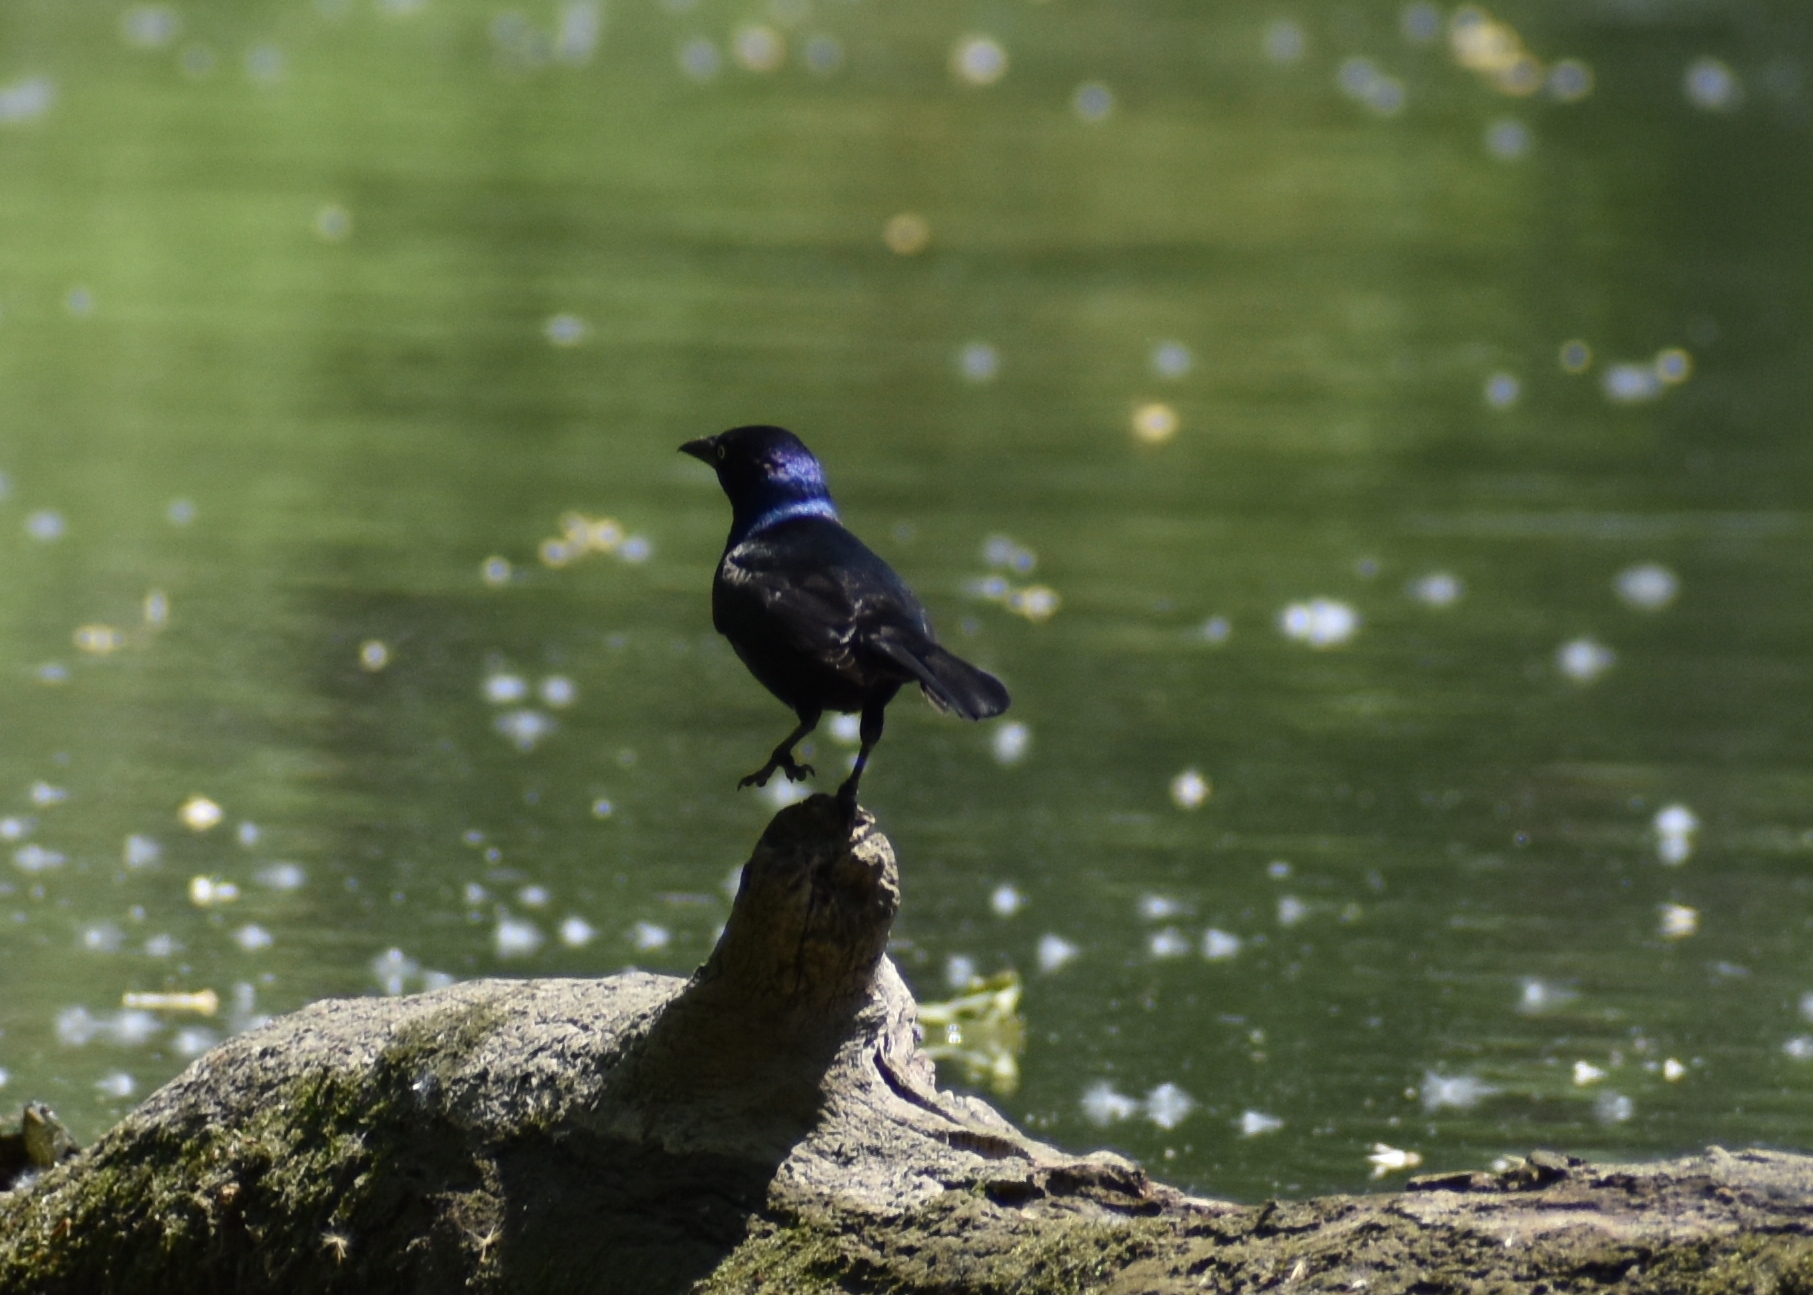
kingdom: Animalia
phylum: Chordata
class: Aves
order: Passeriformes
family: Icteridae
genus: Quiscalus
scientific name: Quiscalus quiscula
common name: Common grackle
